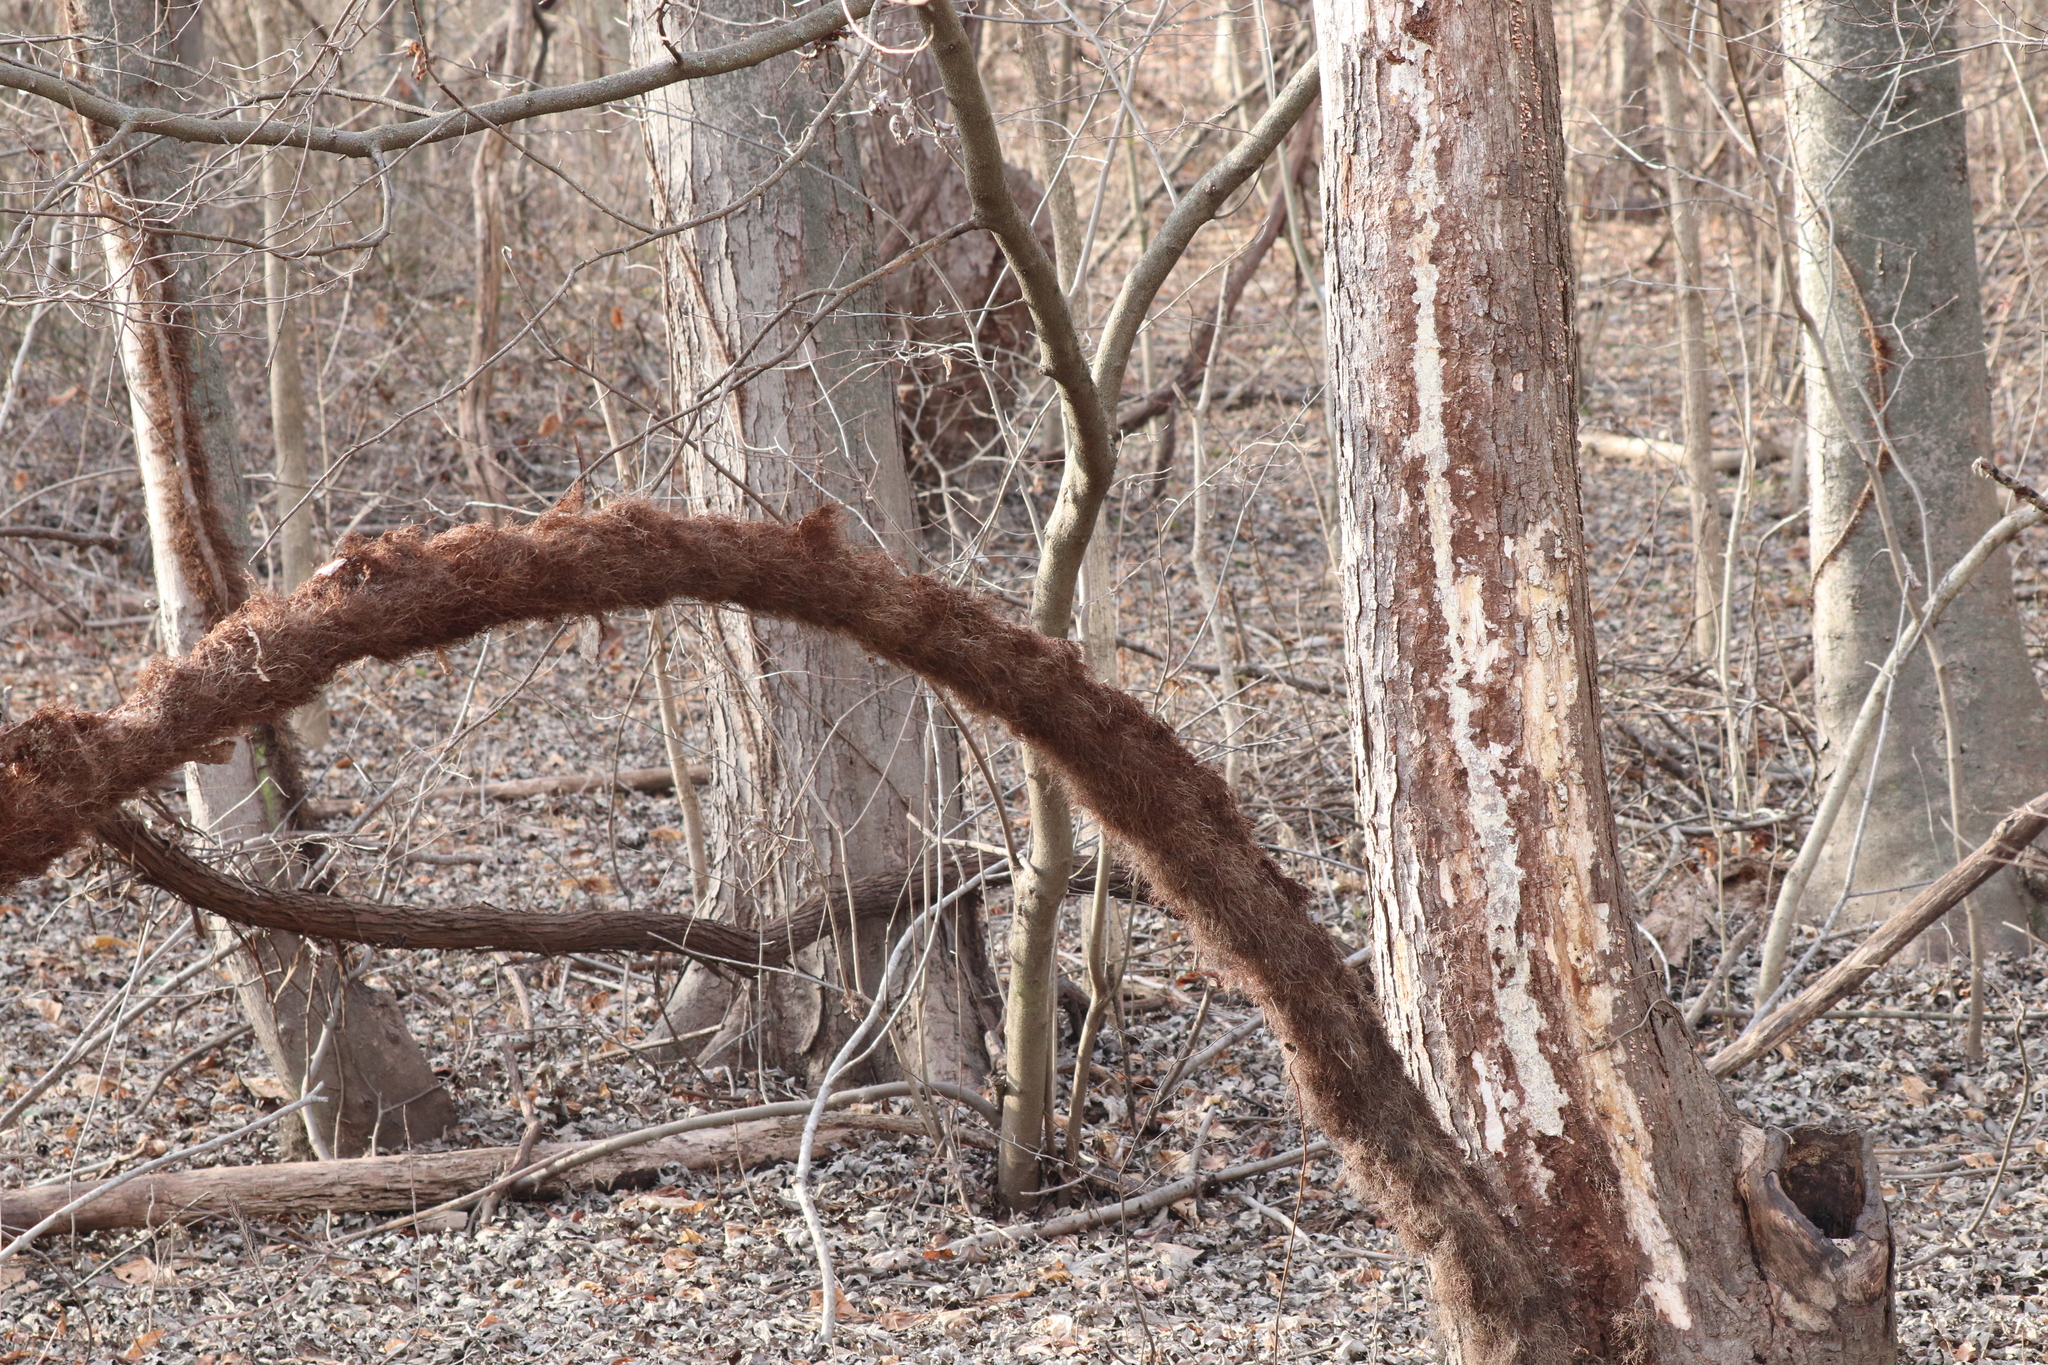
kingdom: Plantae
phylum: Tracheophyta
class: Magnoliopsida
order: Sapindales
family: Anacardiaceae
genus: Toxicodendron
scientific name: Toxicodendron radicans
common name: Poison ivy
